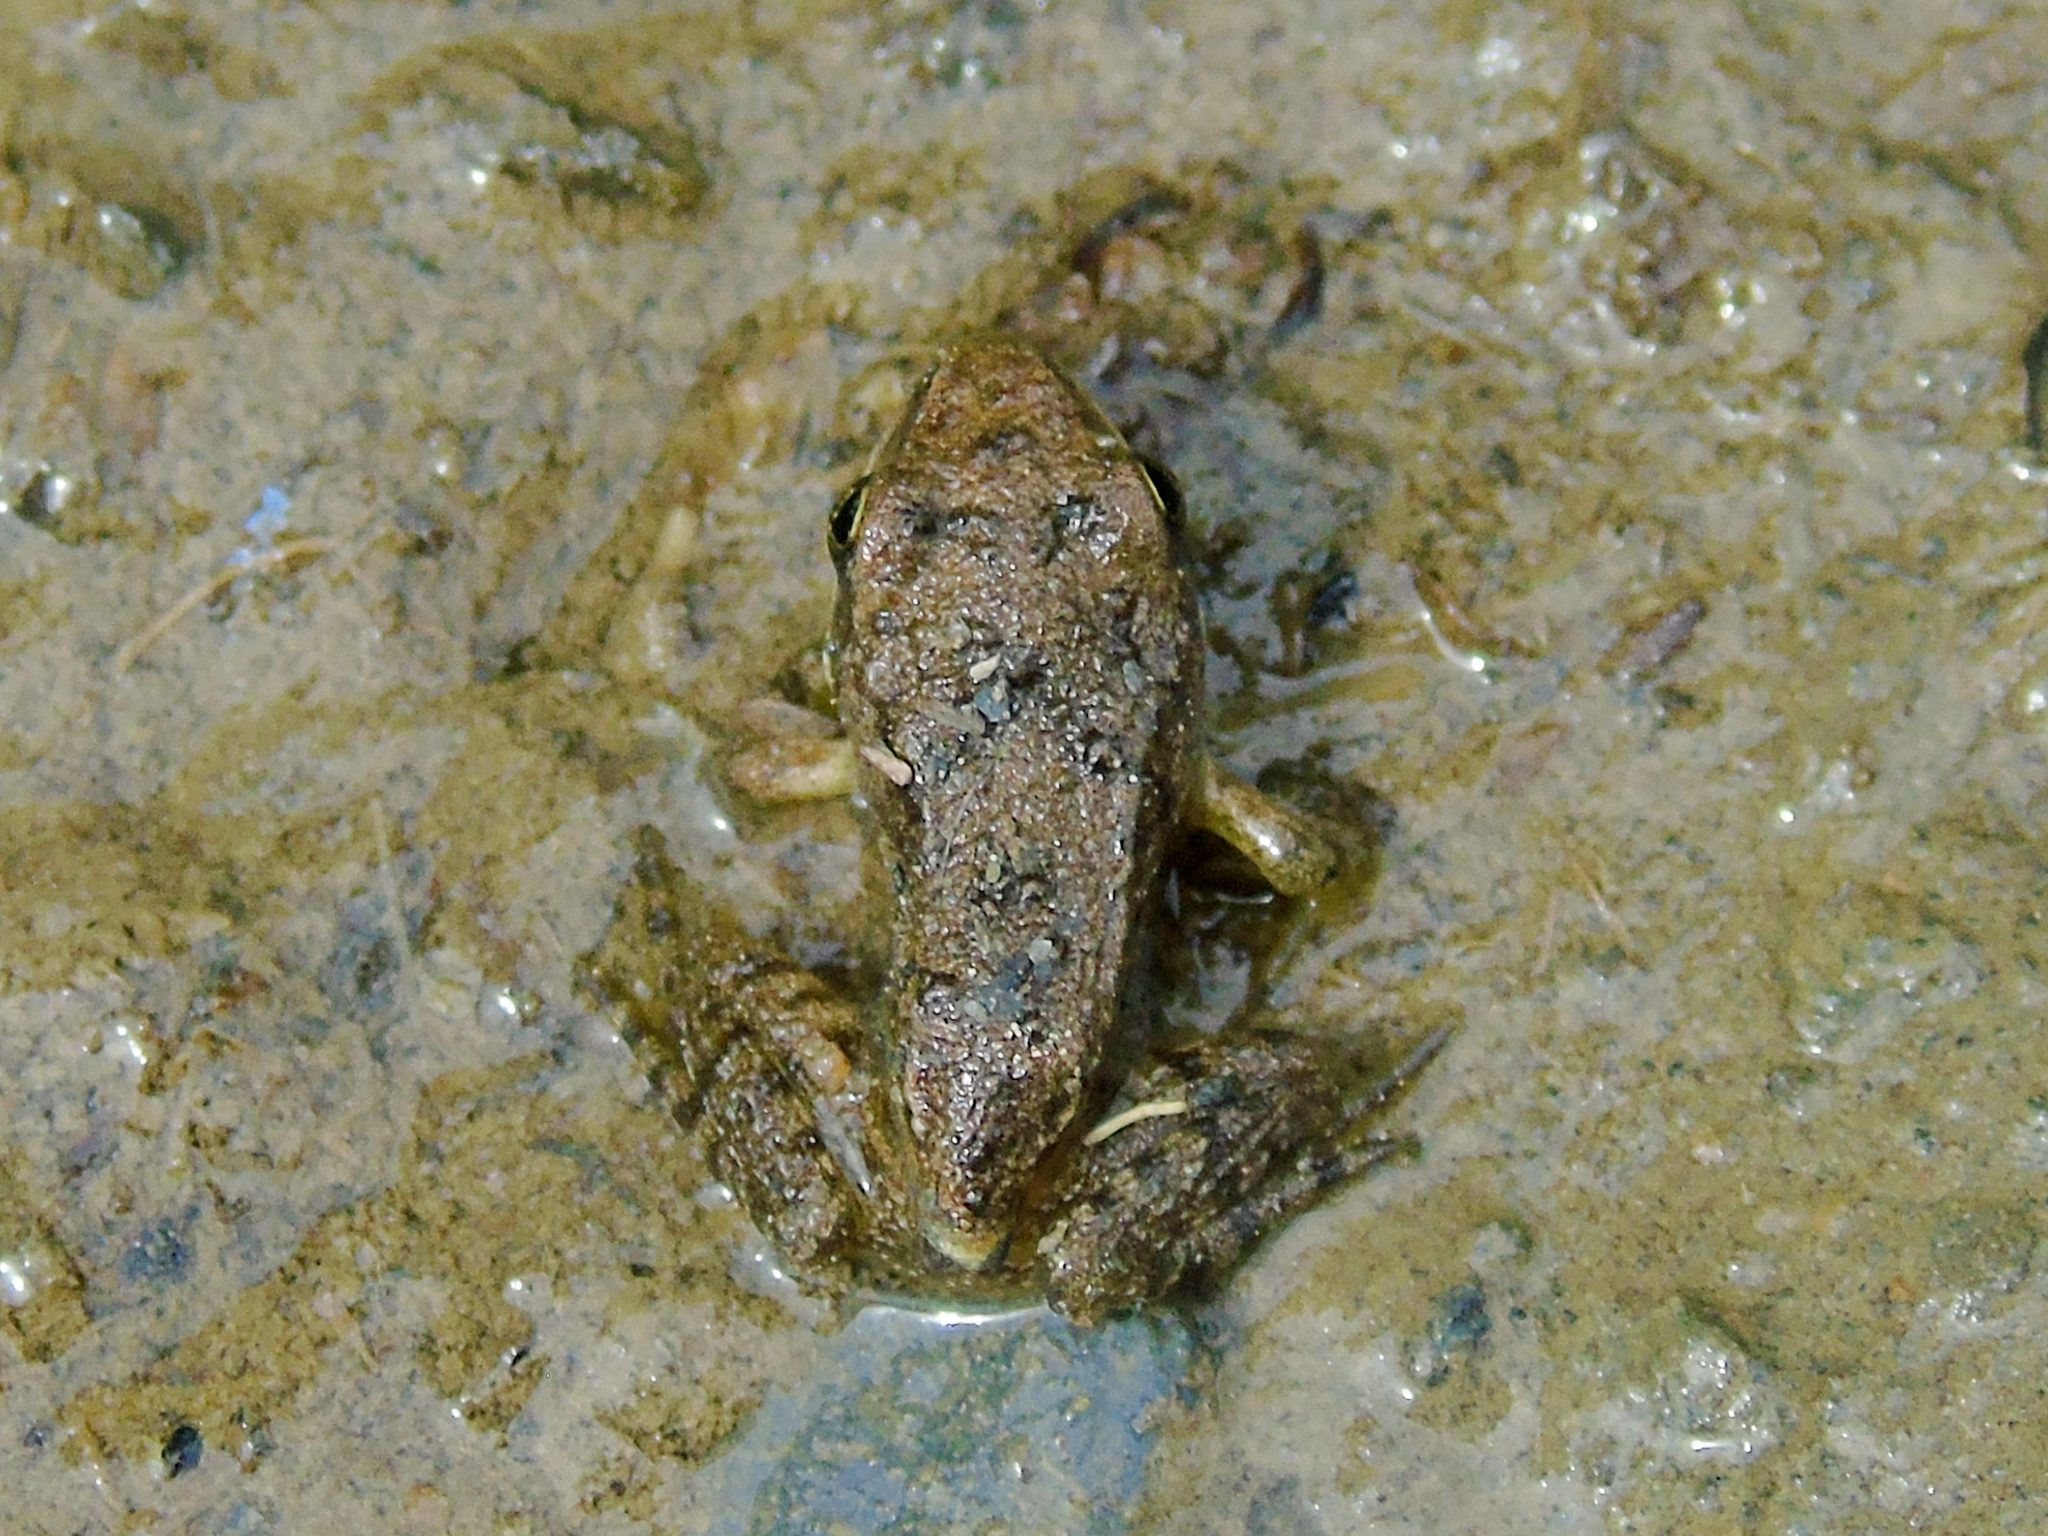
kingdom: Animalia
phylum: Chordata
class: Amphibia
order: Anura
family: Ranidae
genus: Rana
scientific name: Rana macrocnemis
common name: Banded frog
